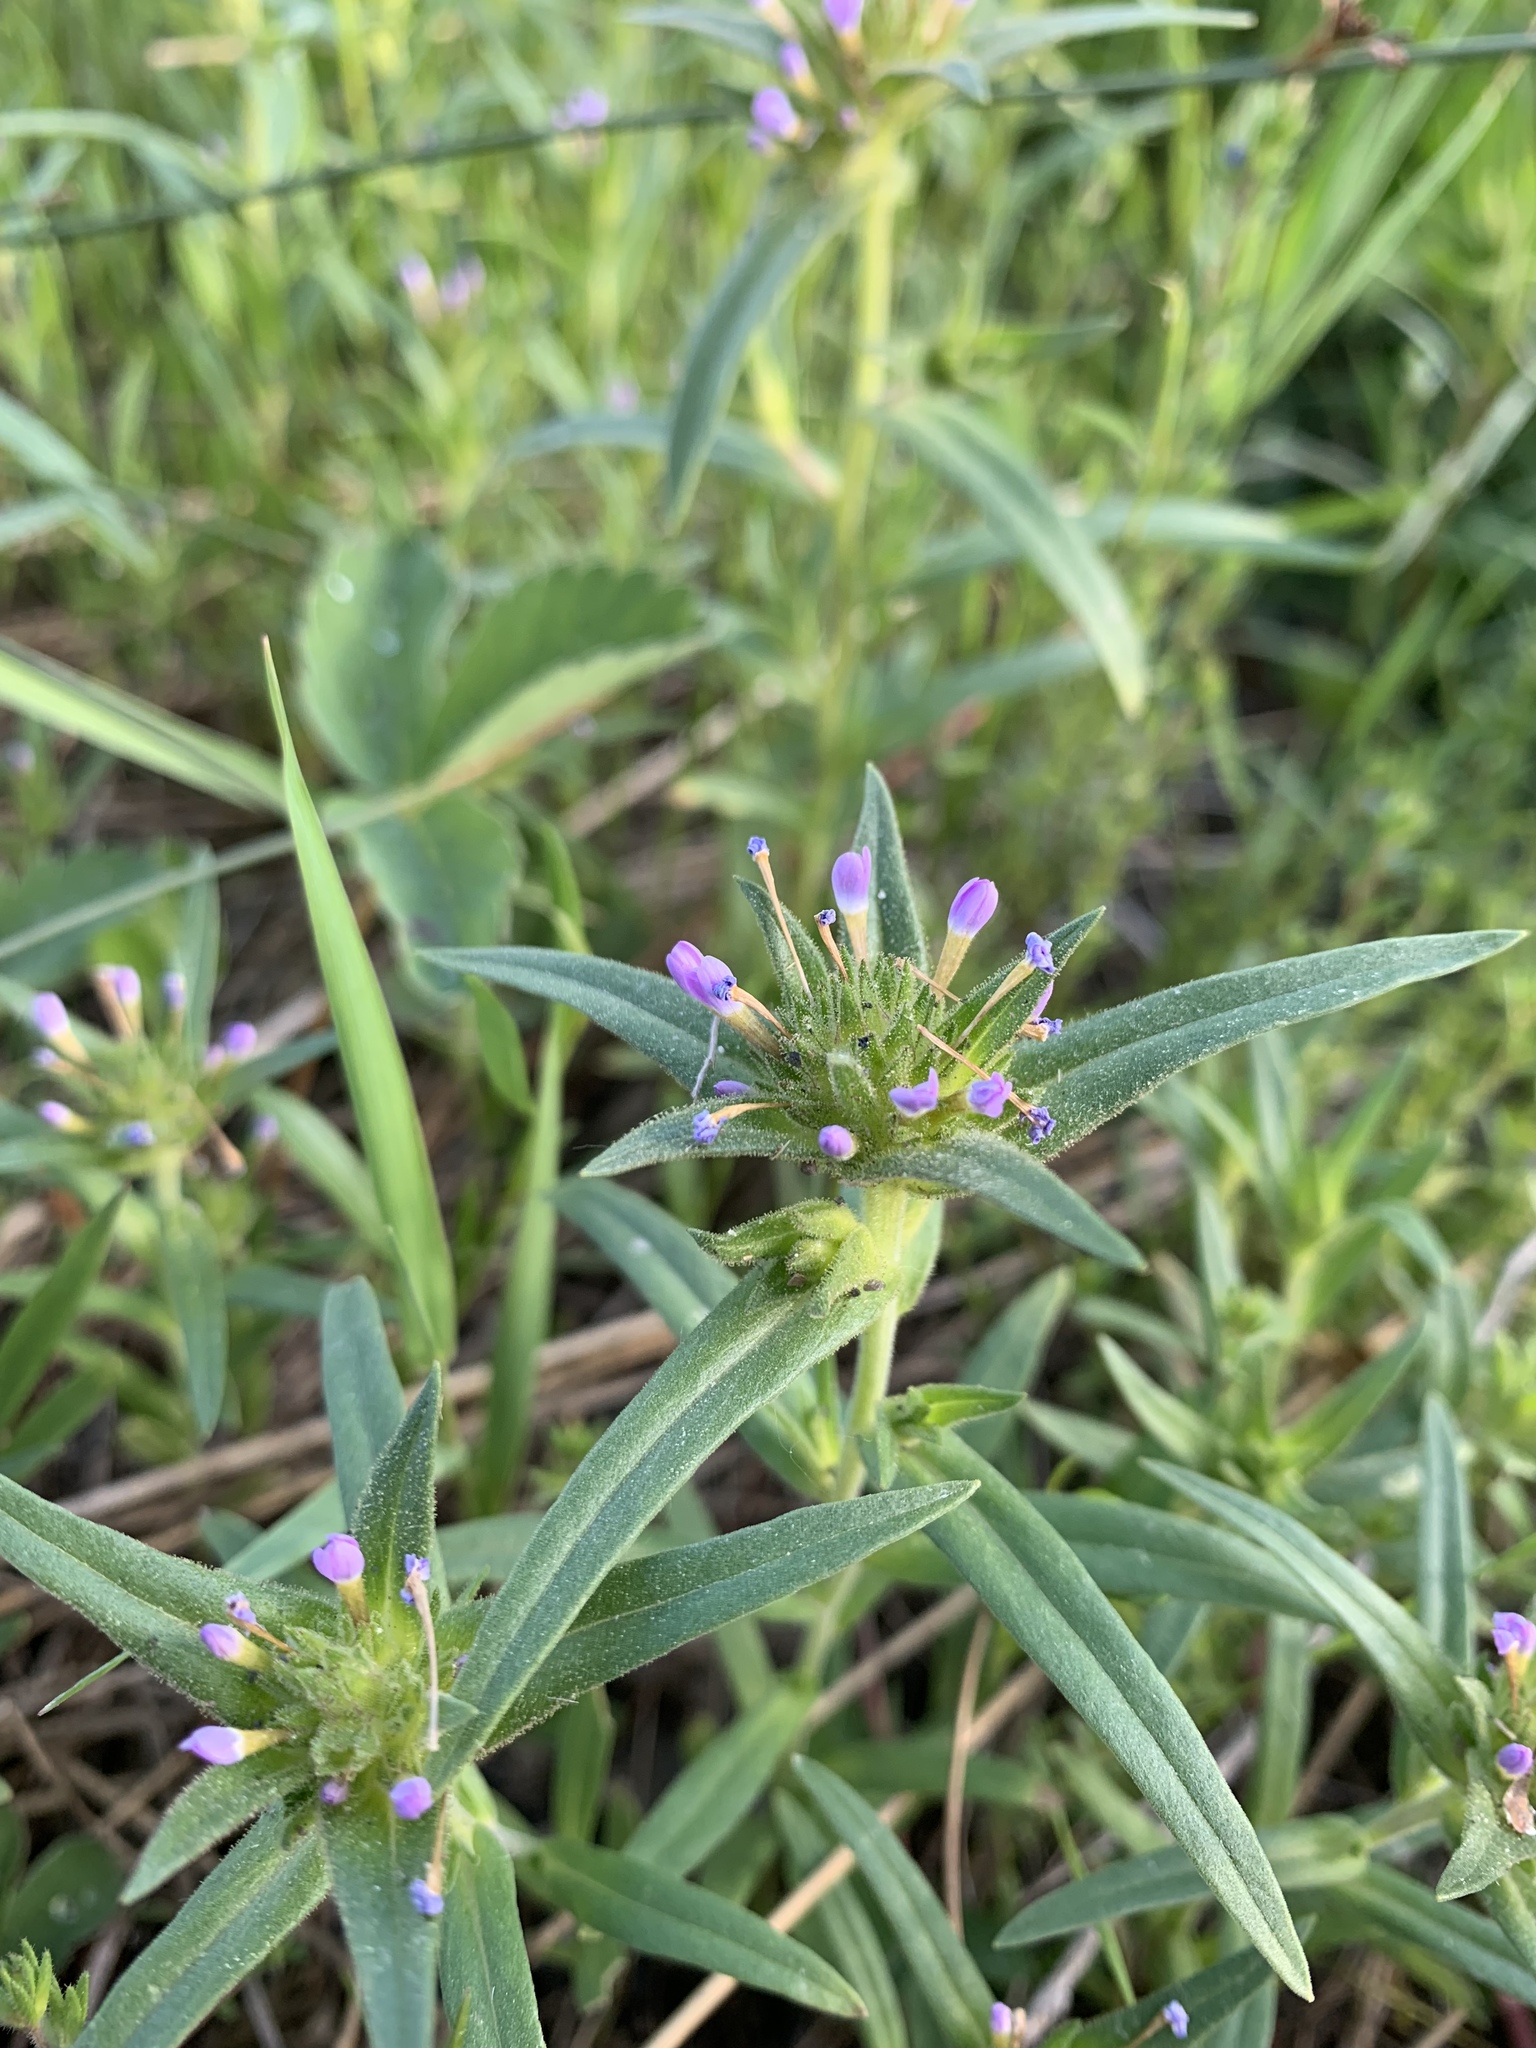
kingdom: Plantae
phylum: Tracheophyta
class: Magnoliopsida
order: Ericales
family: Polemoniaceae
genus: Collomia
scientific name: Collomia linearis
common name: Tiny trumpet
